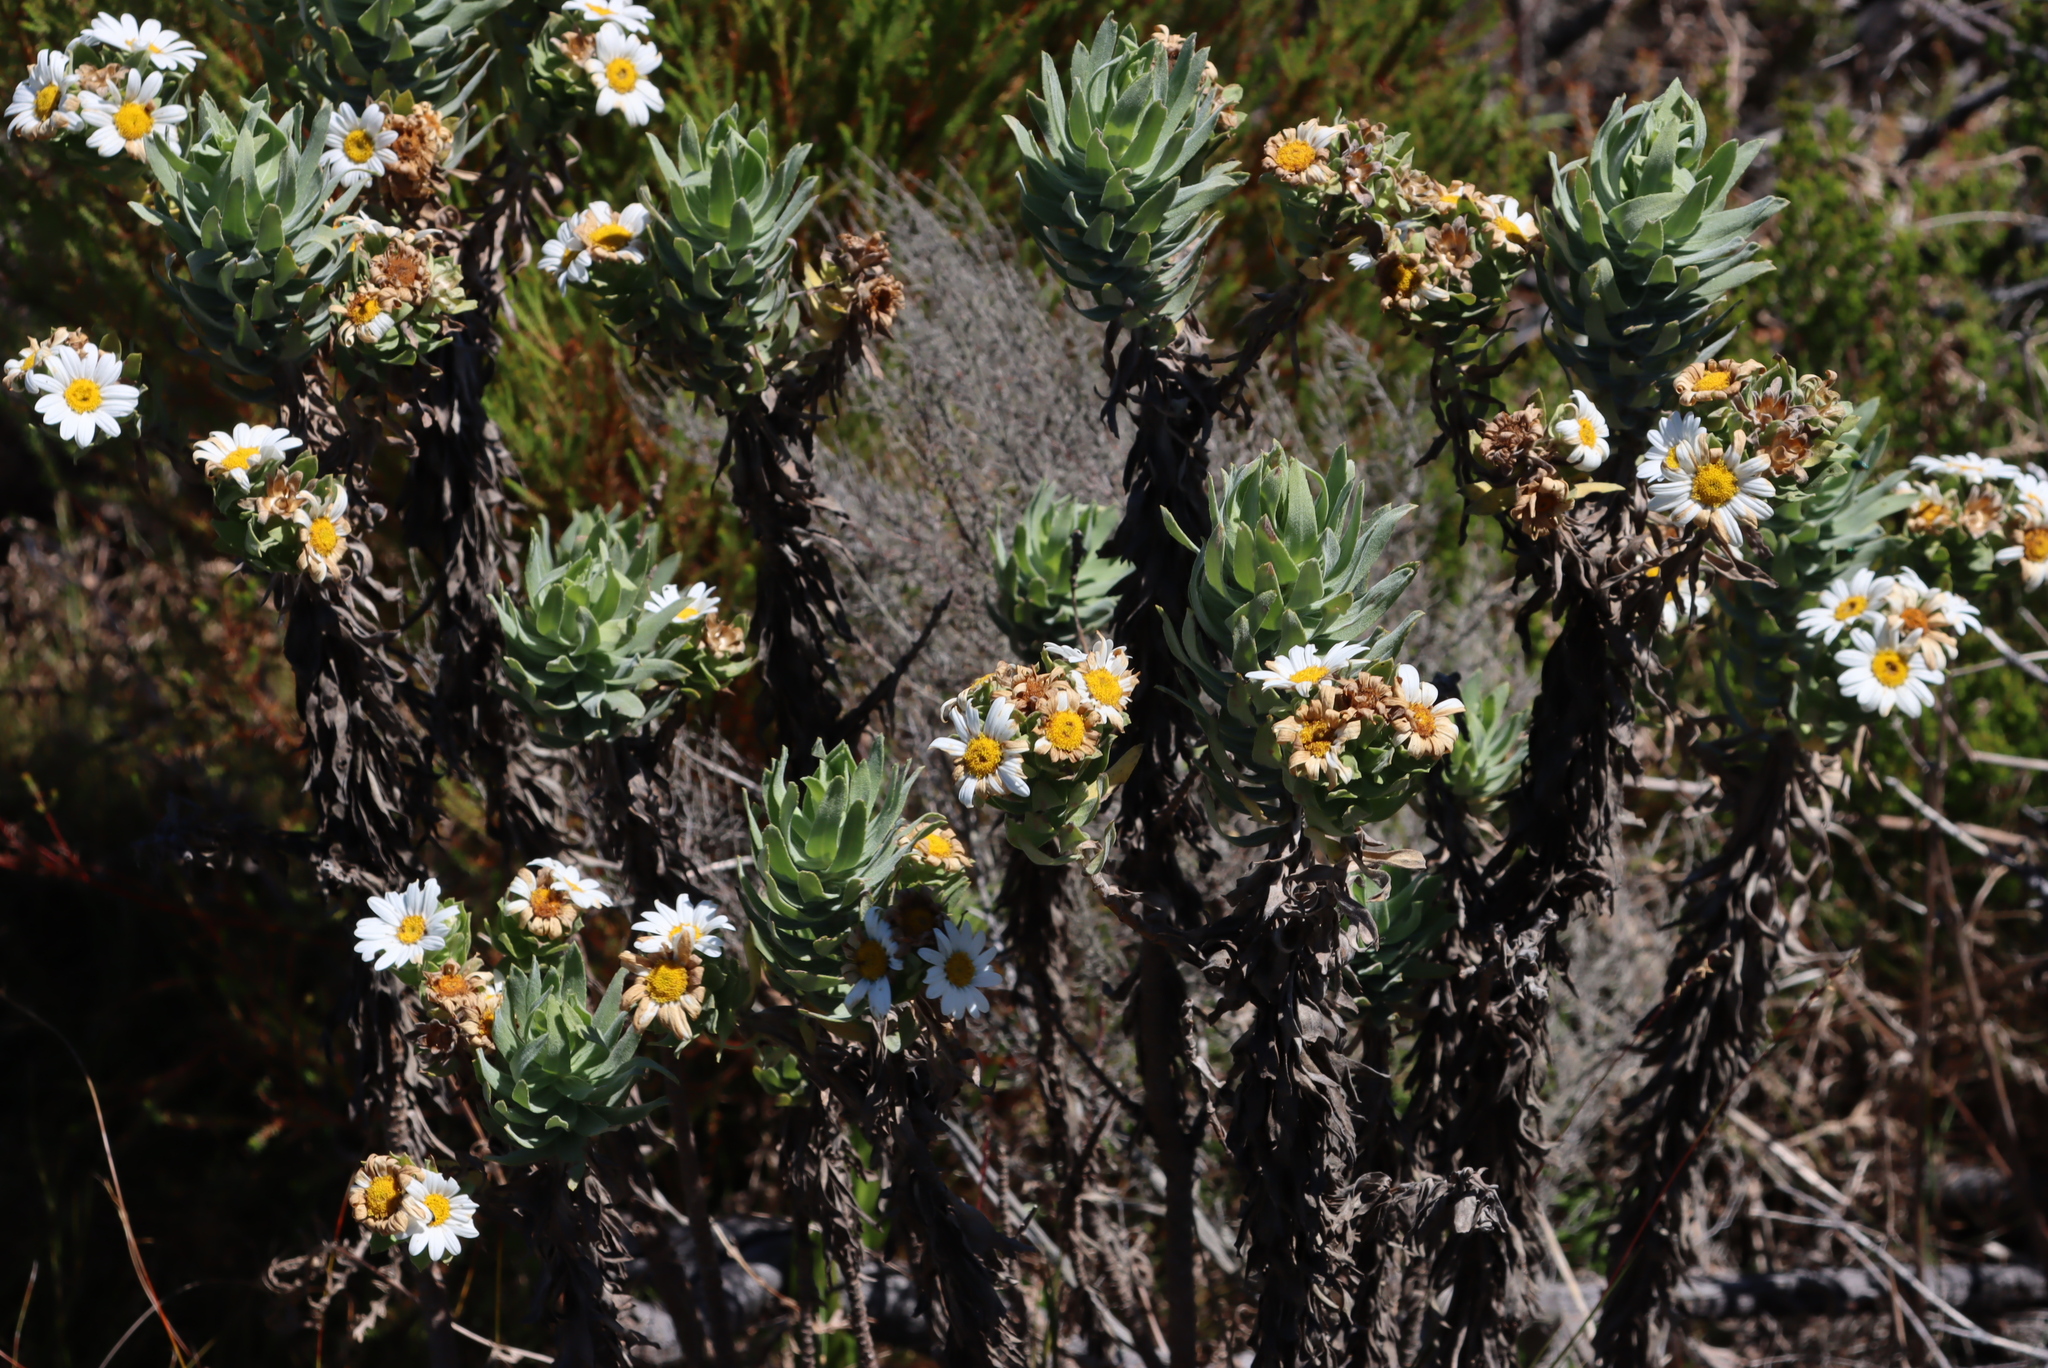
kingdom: Plantae
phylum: Tracheophyta
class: Magnoliopsida
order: Asterales
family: Asteraceae
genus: Osmitopsis
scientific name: Osmitopsis asteriscoides
